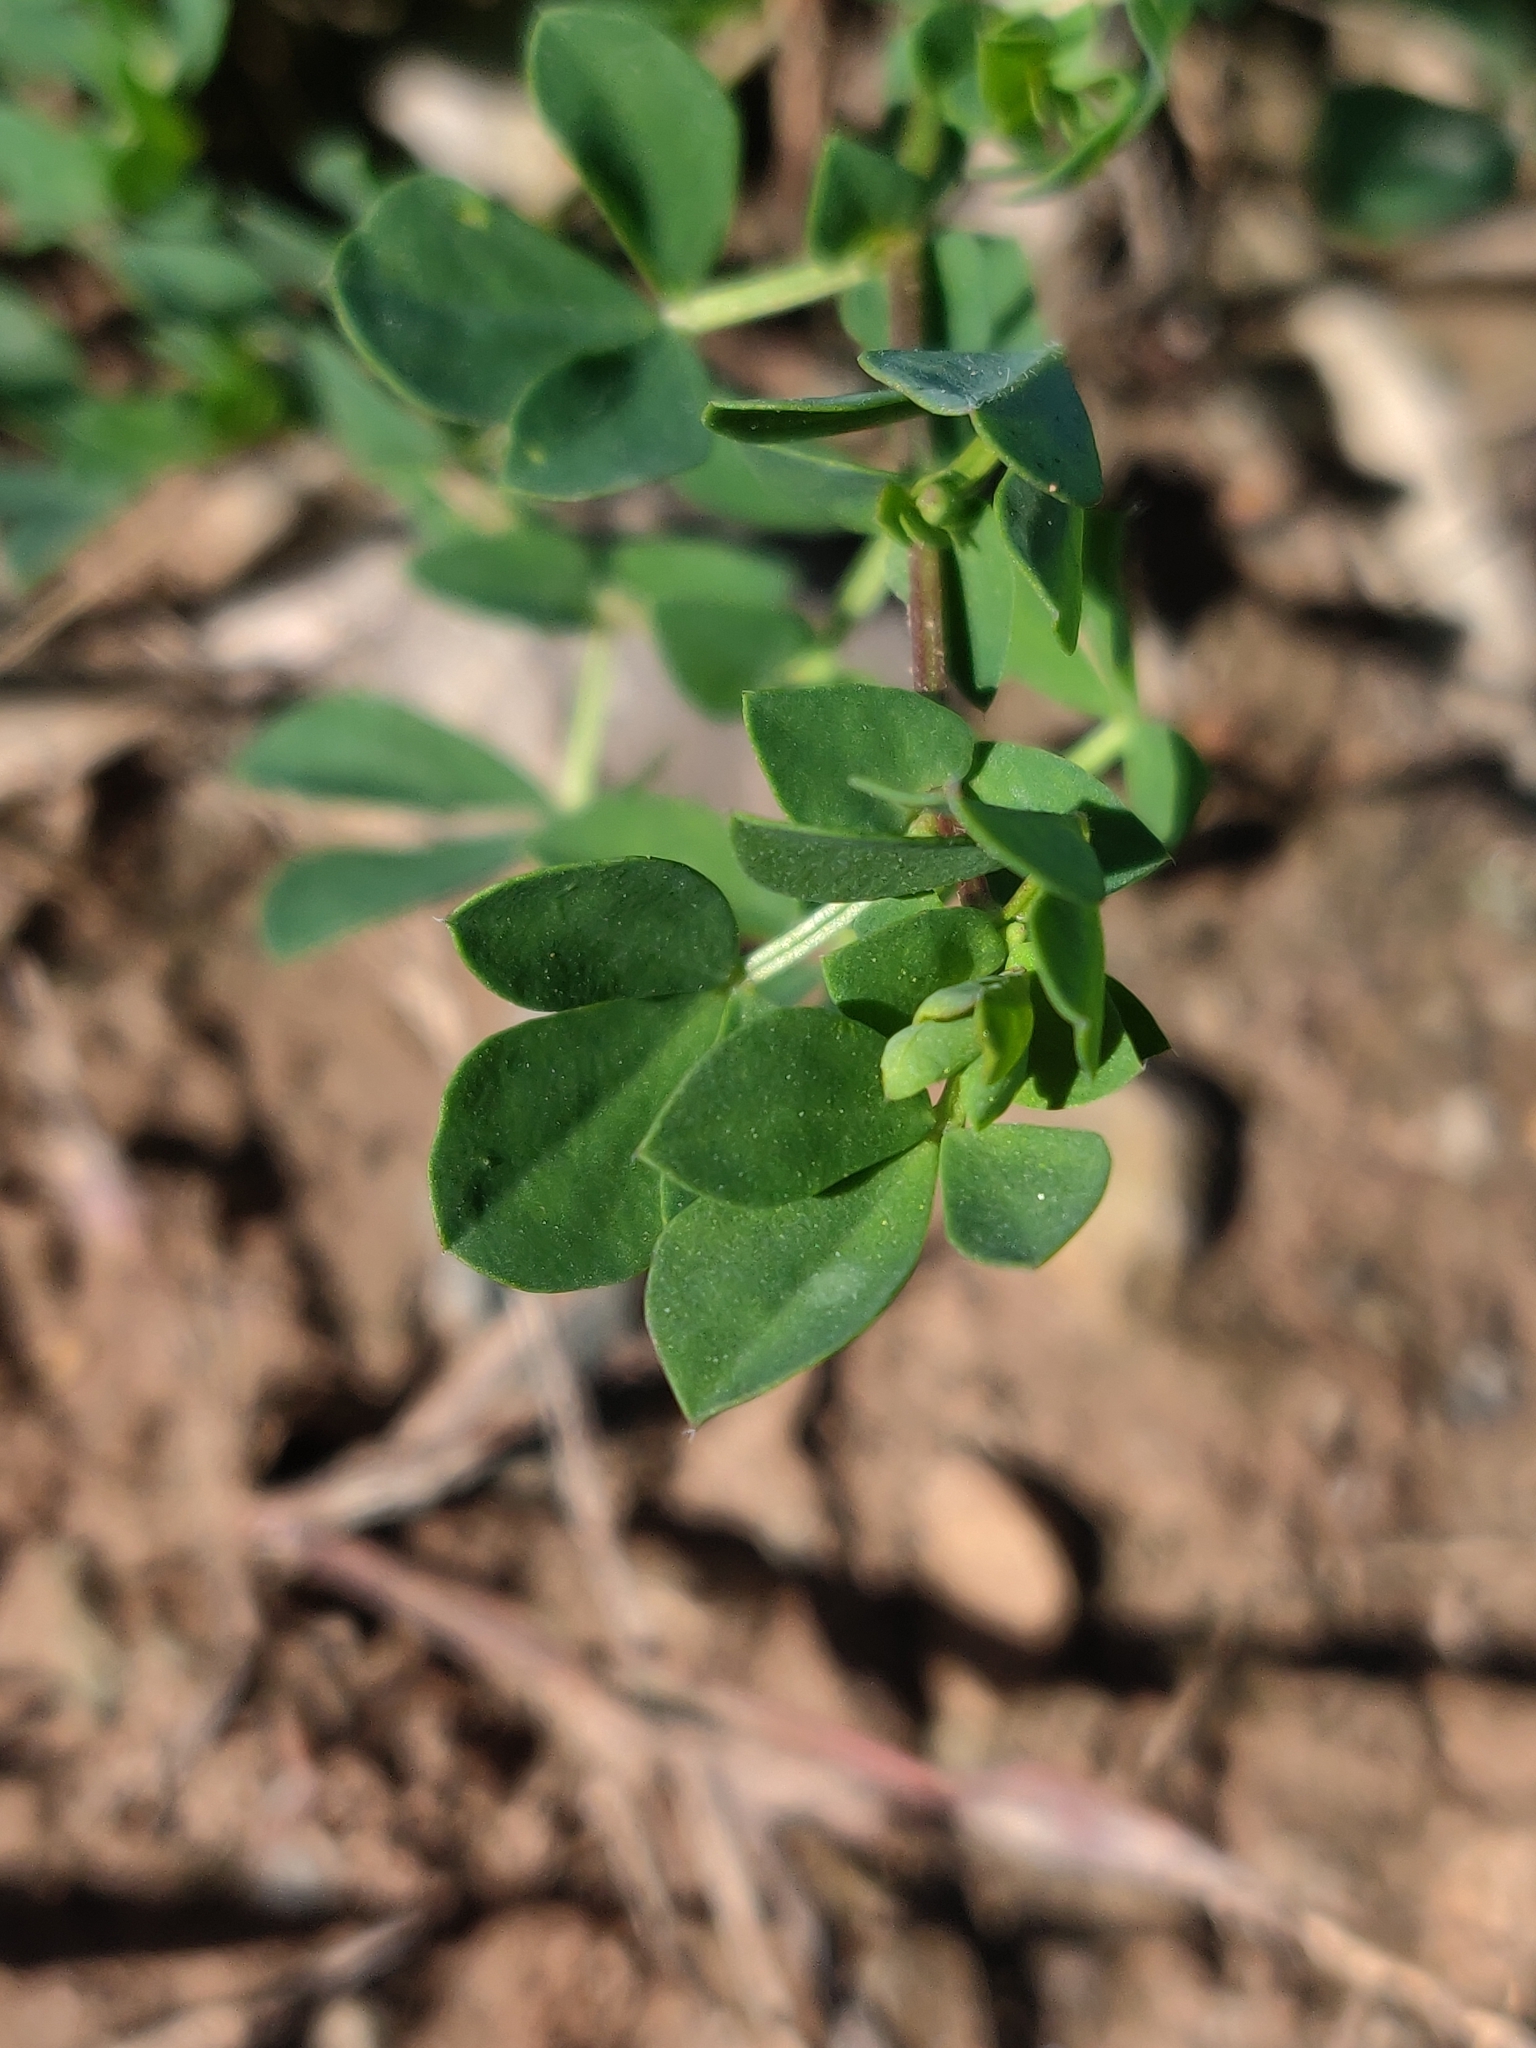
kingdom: Plantae
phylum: Tracheophyta
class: Magnoliopsida
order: Fabales
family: Fabaceae
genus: Lotus
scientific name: Lotus corniculatus
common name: Common bird's-foot-trefoil
